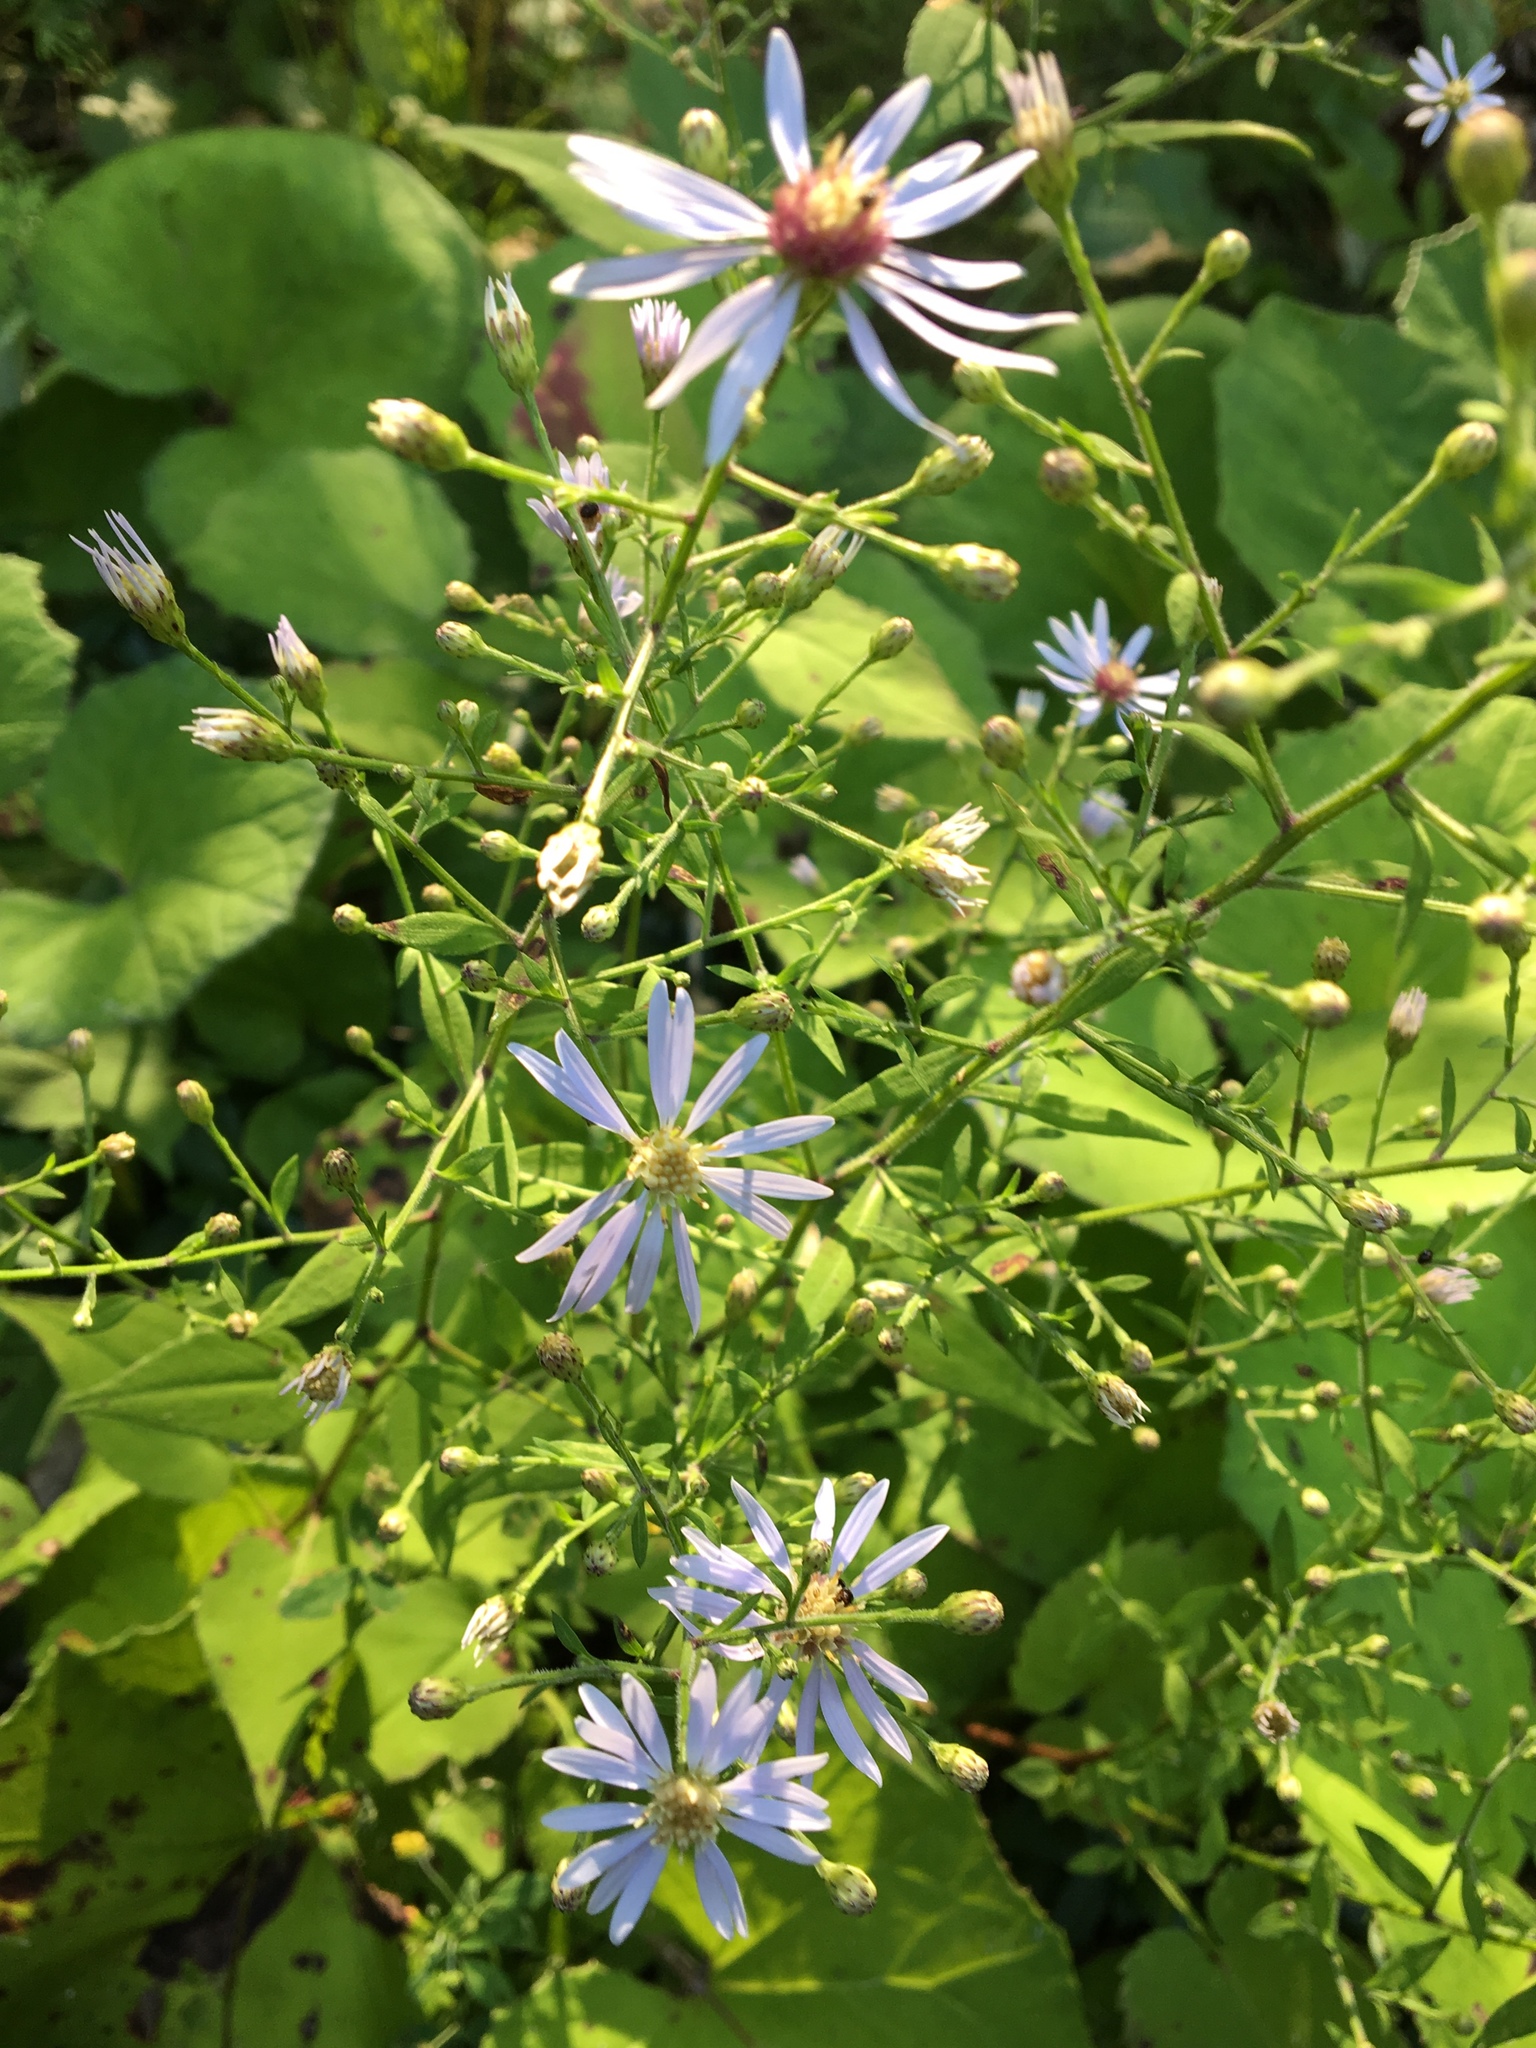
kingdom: Plantae
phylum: Tracheophyta
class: Magnoliopsida
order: Asterales
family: Asteraceae
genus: Symphyotrichum
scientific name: Symphyotrichum cordifolium
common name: Beeweed
